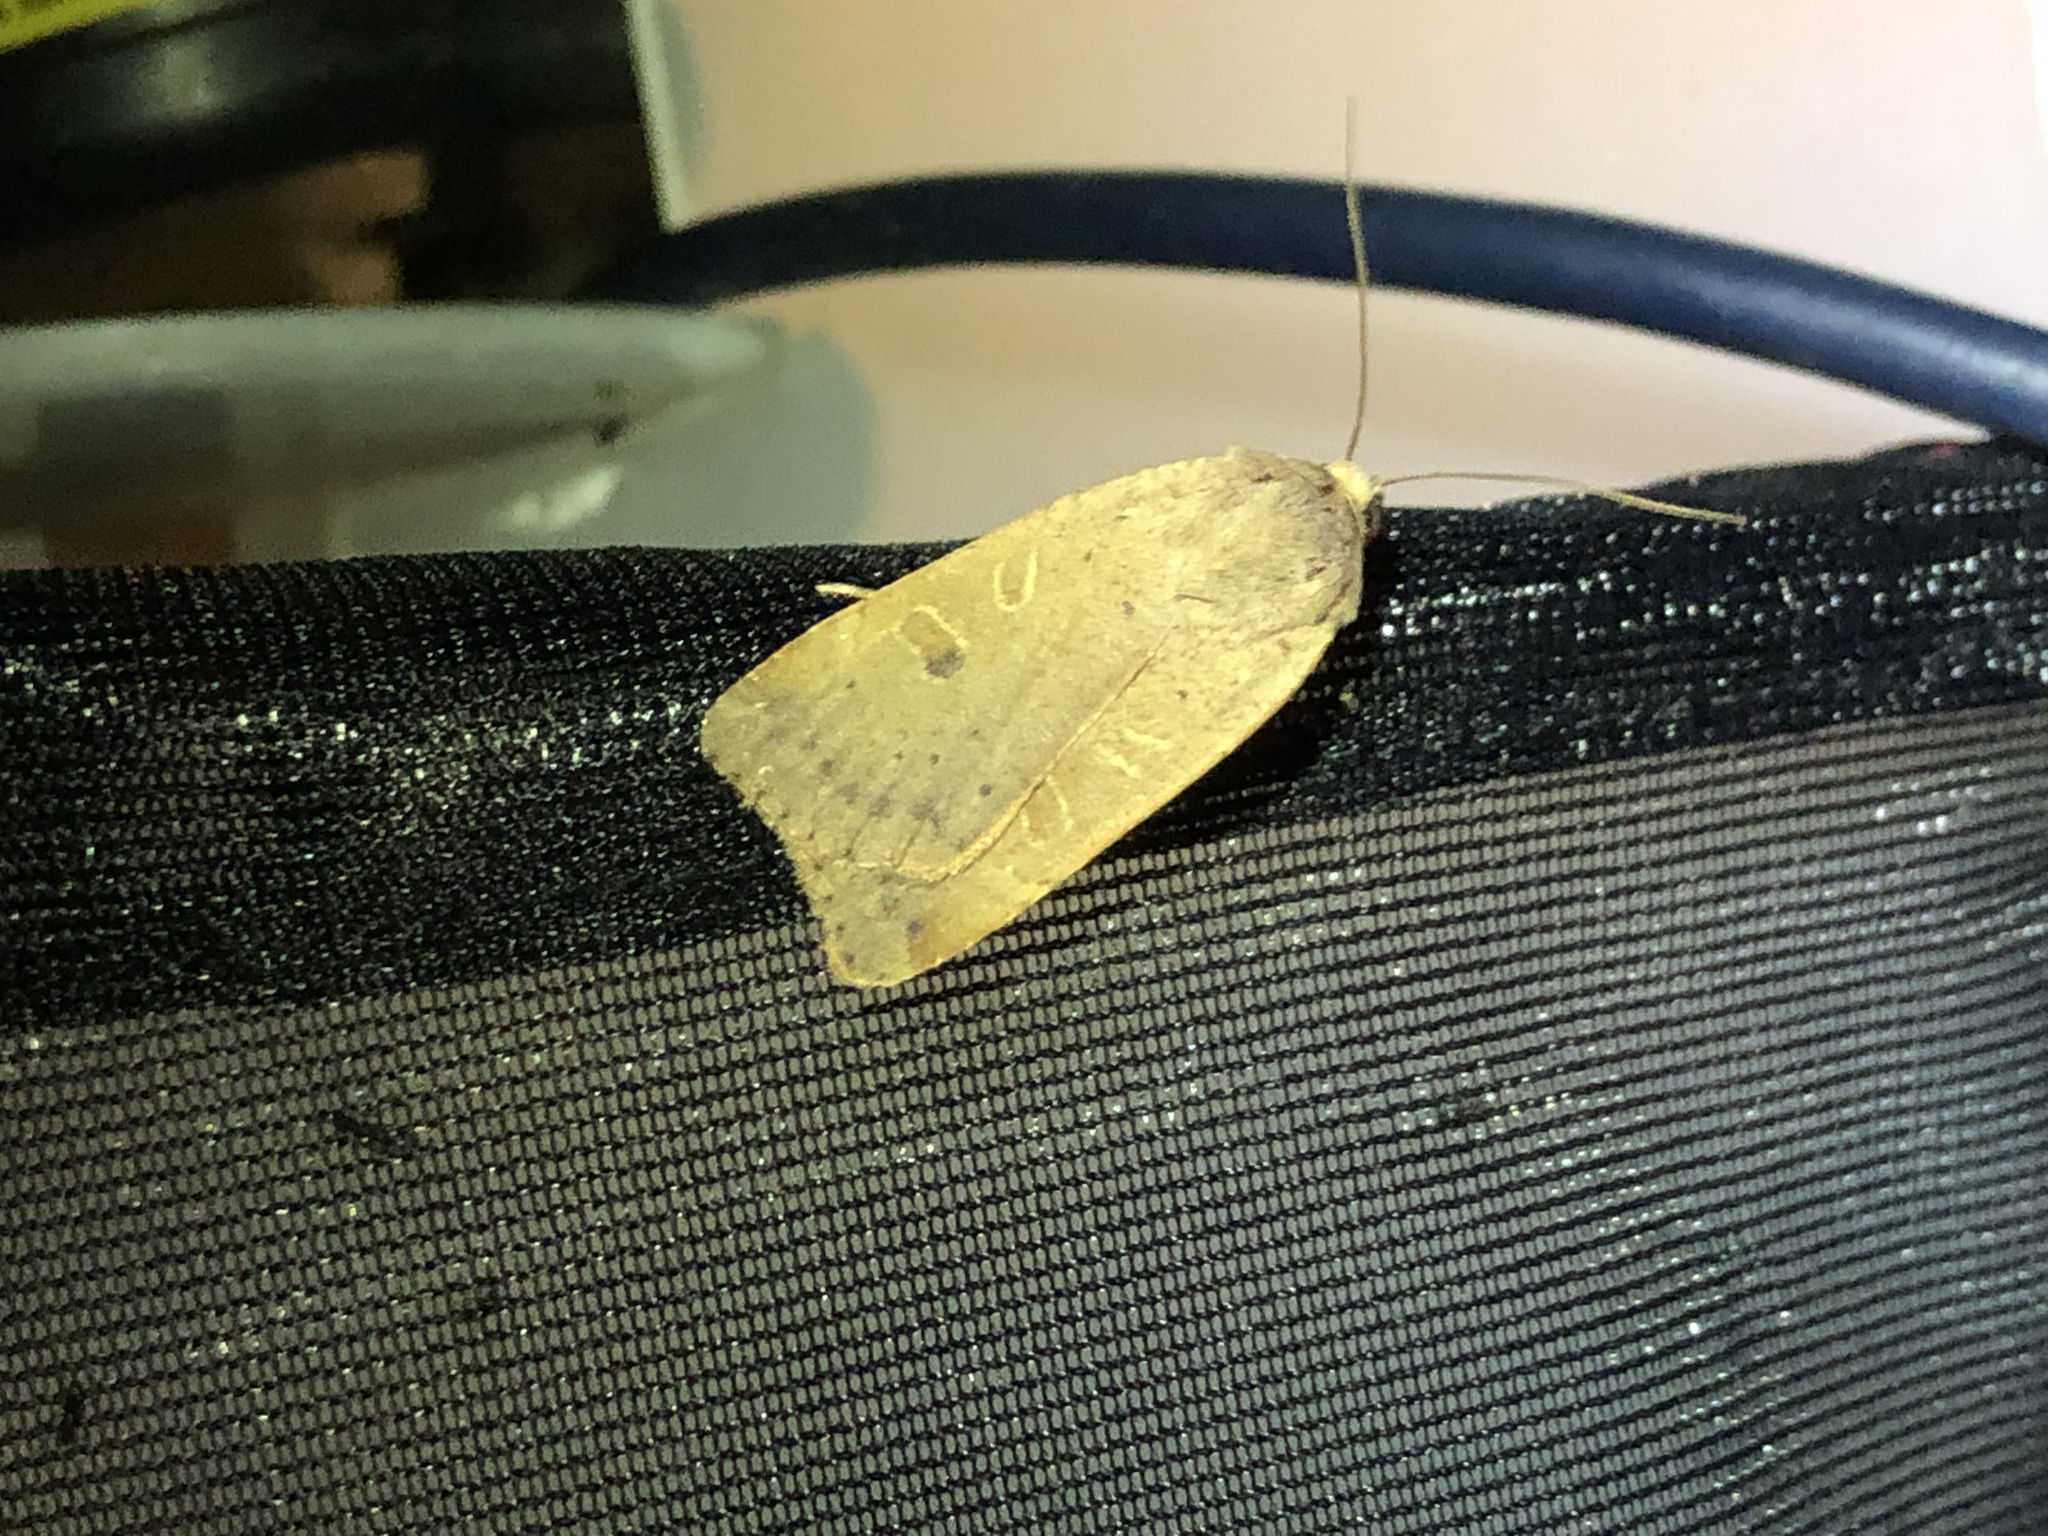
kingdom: Animalia
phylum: Arthropoda
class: Insecta
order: Lepidoptera
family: Noctuidae
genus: Noctua
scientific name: Noctua comes
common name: Lesser yellow underwing
